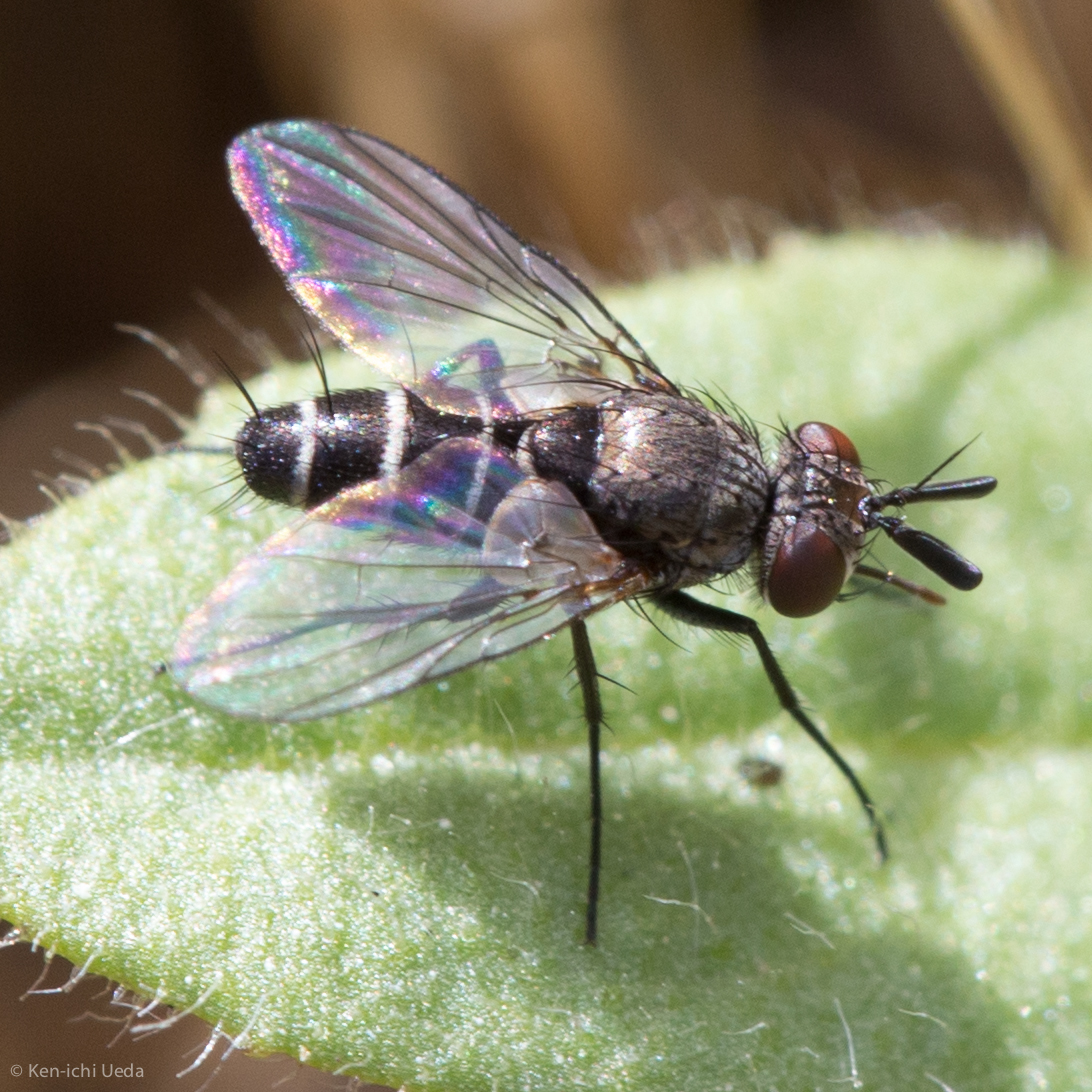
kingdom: Animalia
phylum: Arthropoda
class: Insecta
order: Diptera
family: Tachinidae
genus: Clausicella
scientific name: Clausicella setigera
